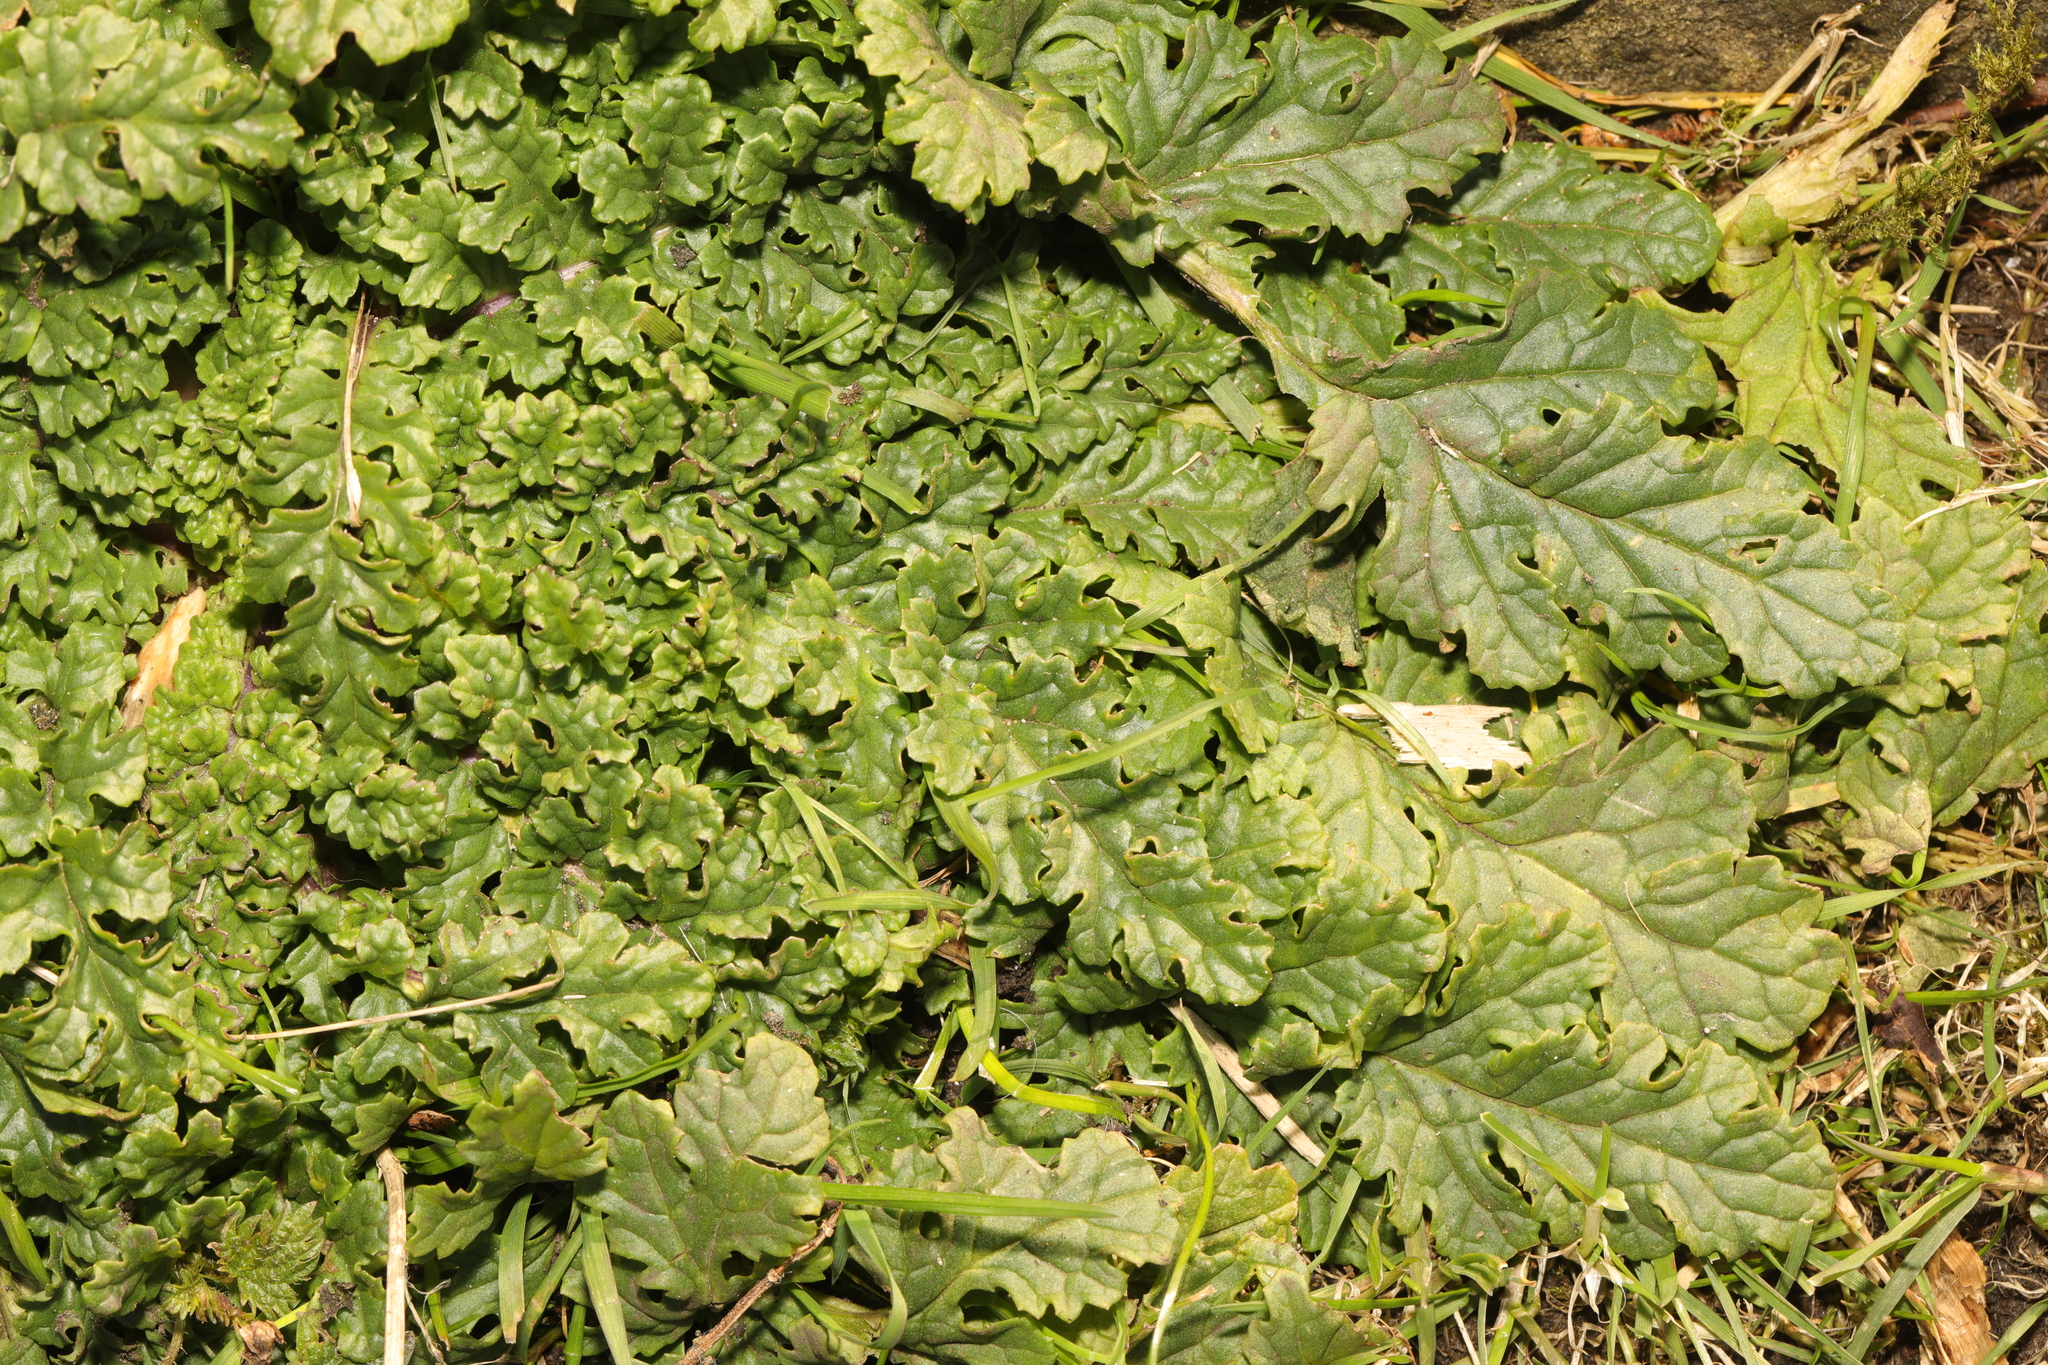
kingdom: Plantae
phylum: Tracheophyta
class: Magnoliopsida
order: Asterales
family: Asteraceae
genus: Jacobaea
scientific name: Jacobaea vulgaris
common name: Stinking willie
